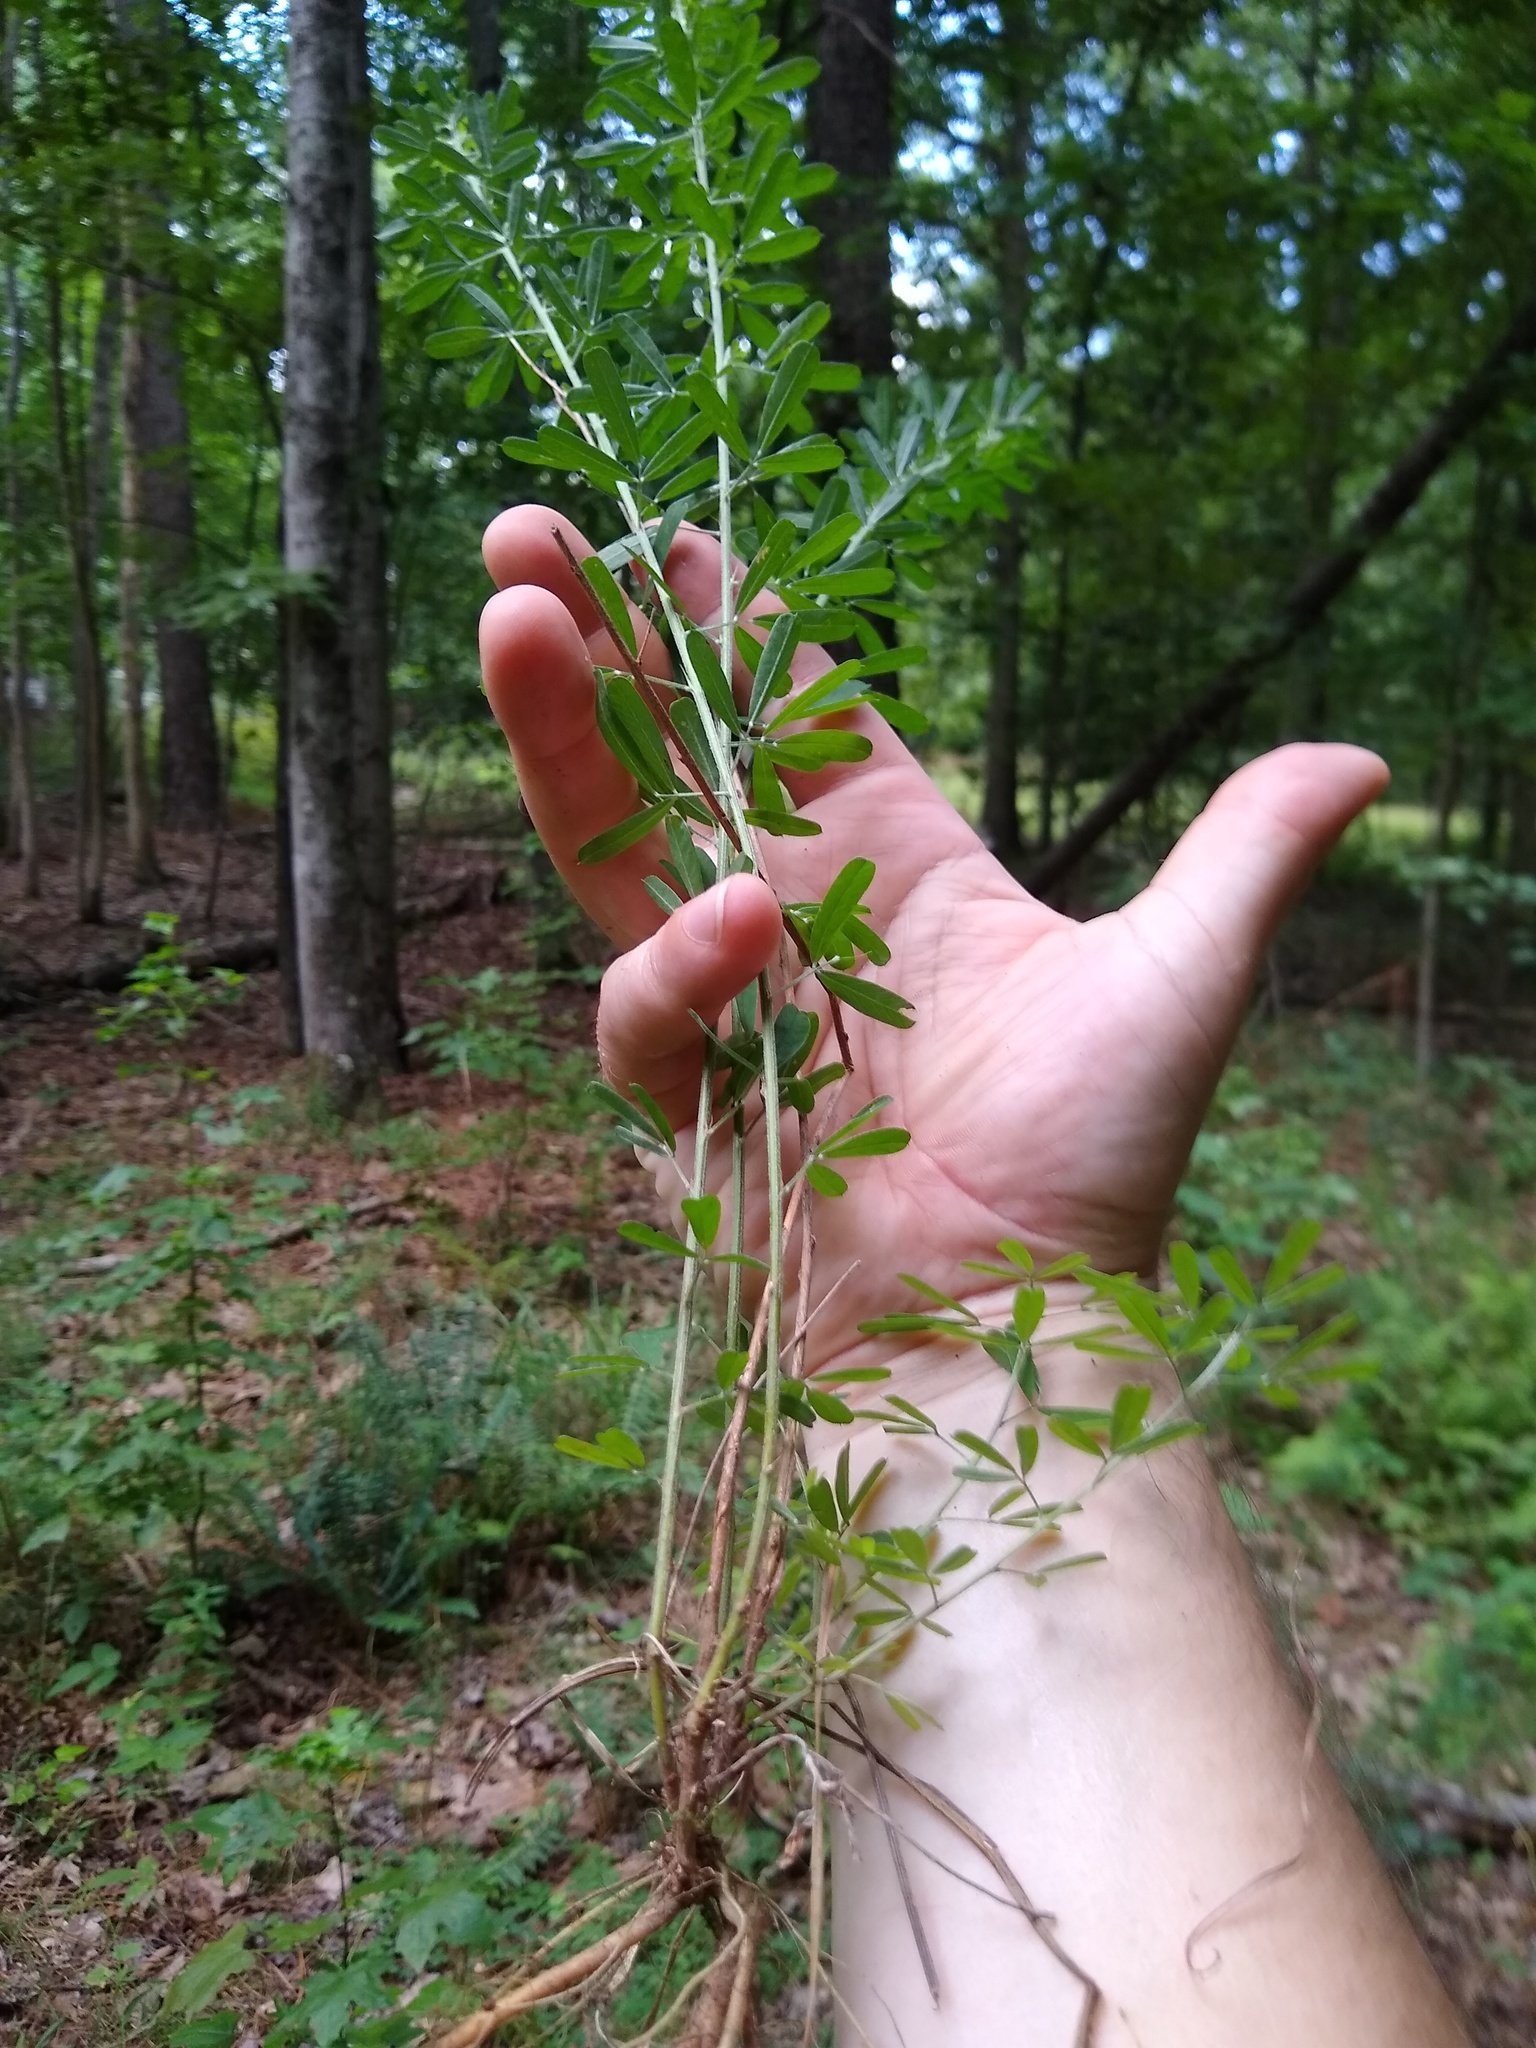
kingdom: Plantae
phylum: Tracheophyta
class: Magnoliopsida
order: Fabales
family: Fabaceae
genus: Lespedeza
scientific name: Lespedeza cuneata
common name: Chinese bush-clover
